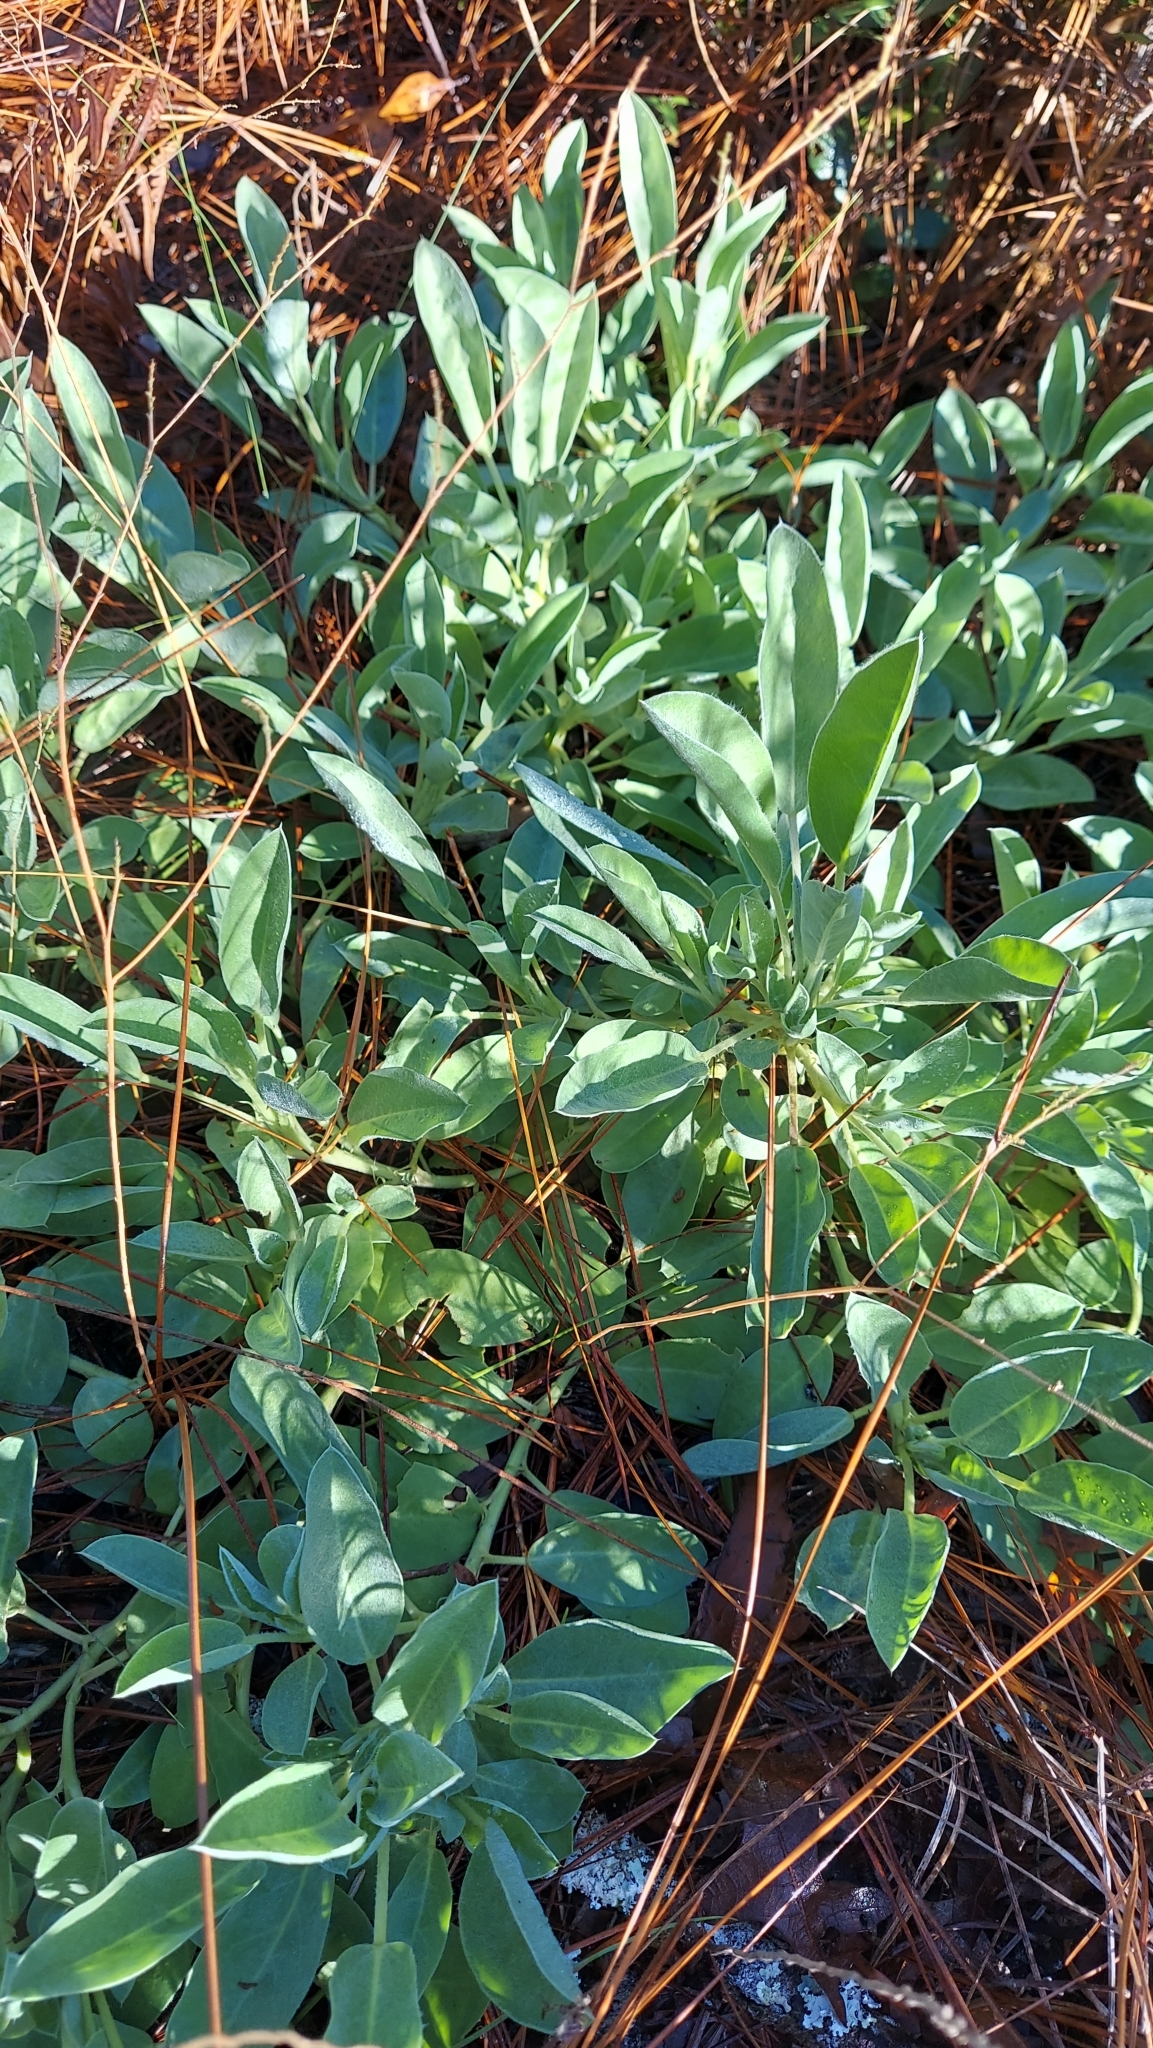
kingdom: Plantae
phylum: Tracheophyta
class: Magnoliopsida
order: Fabales
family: Fabaceae
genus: Lupinus
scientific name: Lupinus
